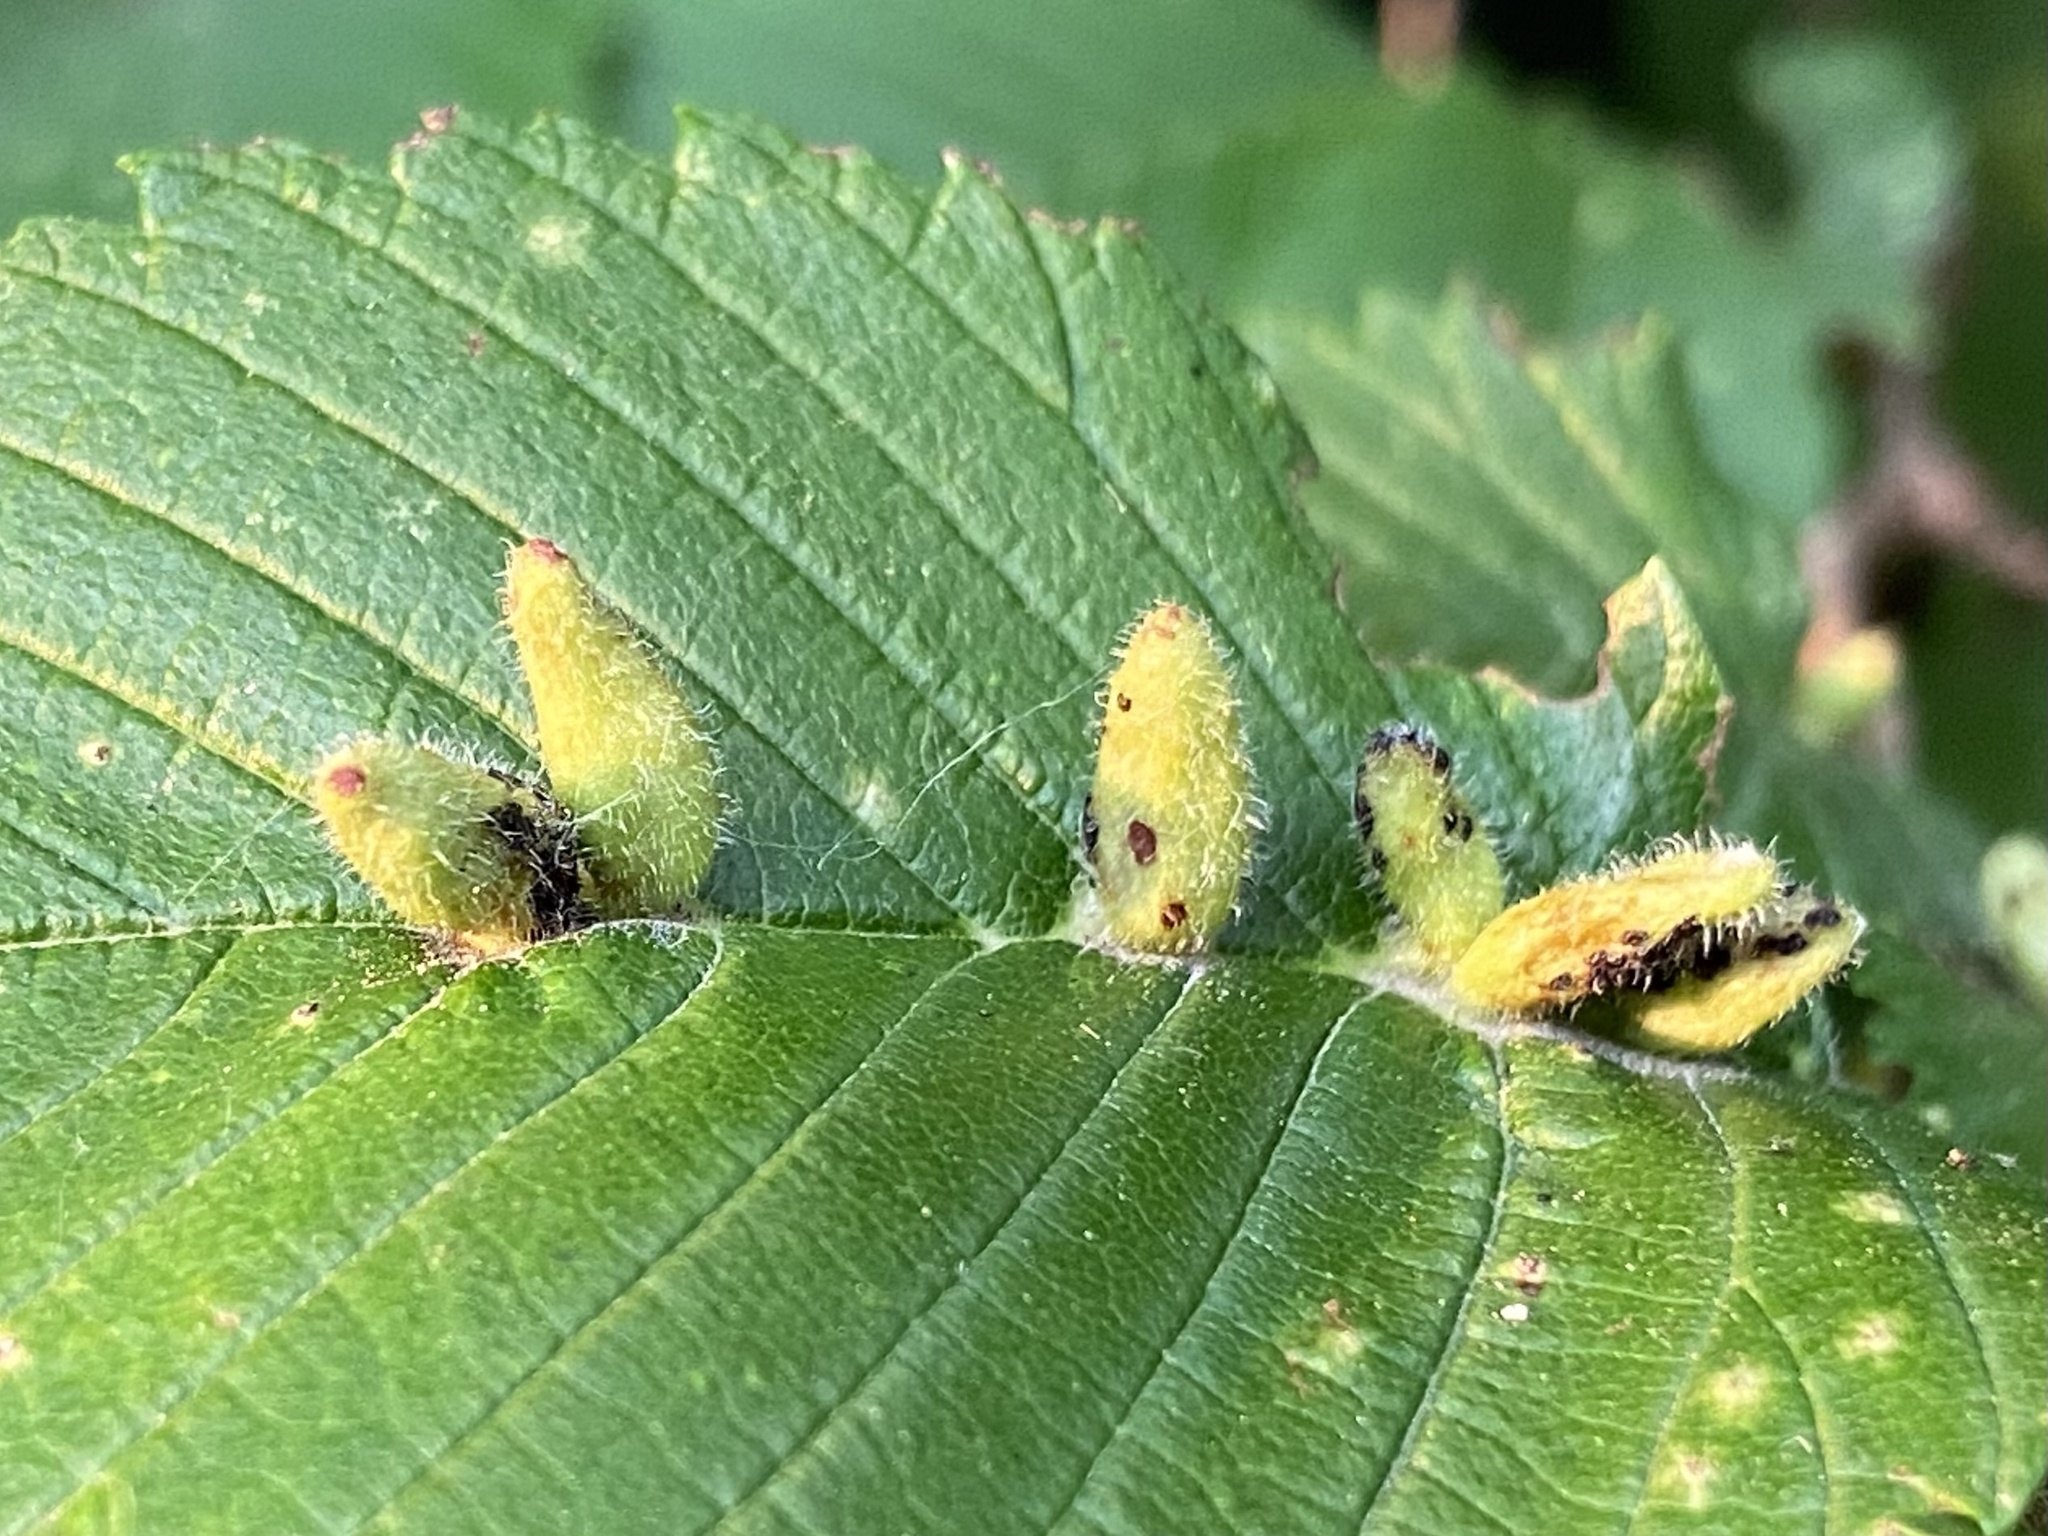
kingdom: Animalia
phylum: Arthropoda
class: Arachnida
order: Trombidiformes
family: Eriophyidae
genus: Aceria
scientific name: Aceria
